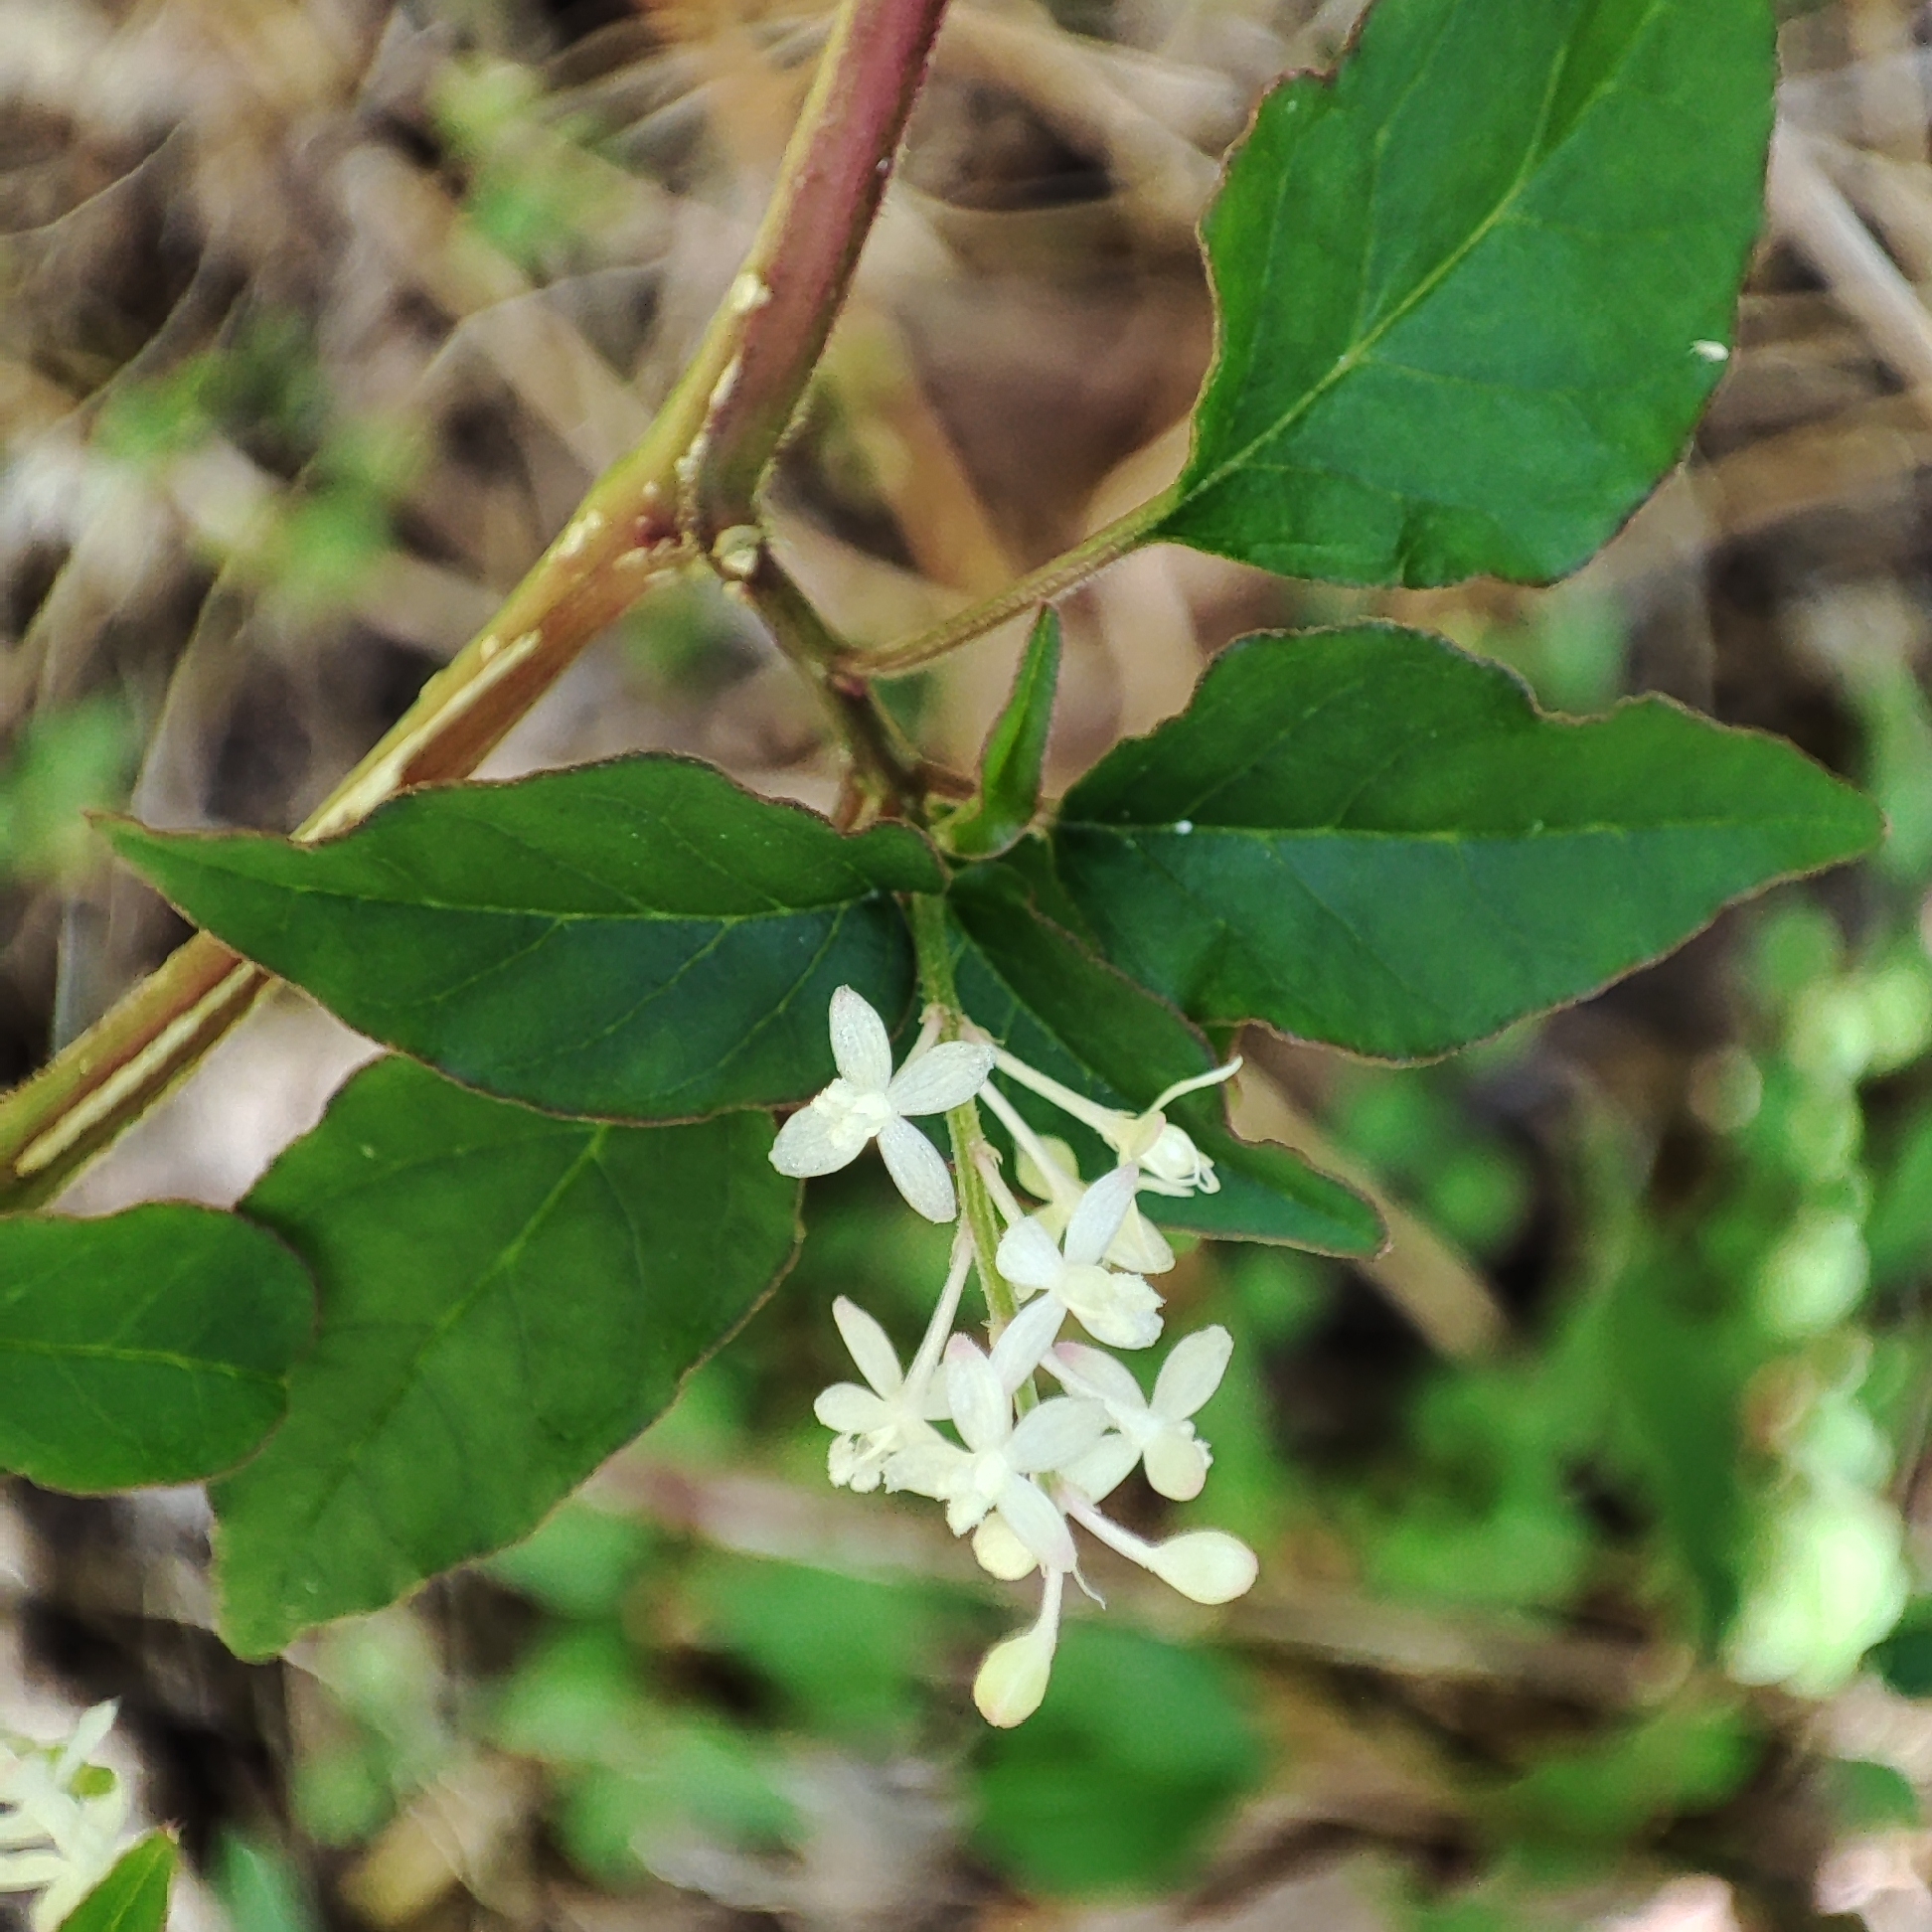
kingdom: Plantae
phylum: Tracheophyta
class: Magnoliopsida
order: Caryophyllales
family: Phytolaccaceae
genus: Rivina
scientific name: Rivina humilis
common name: Rougeplant
